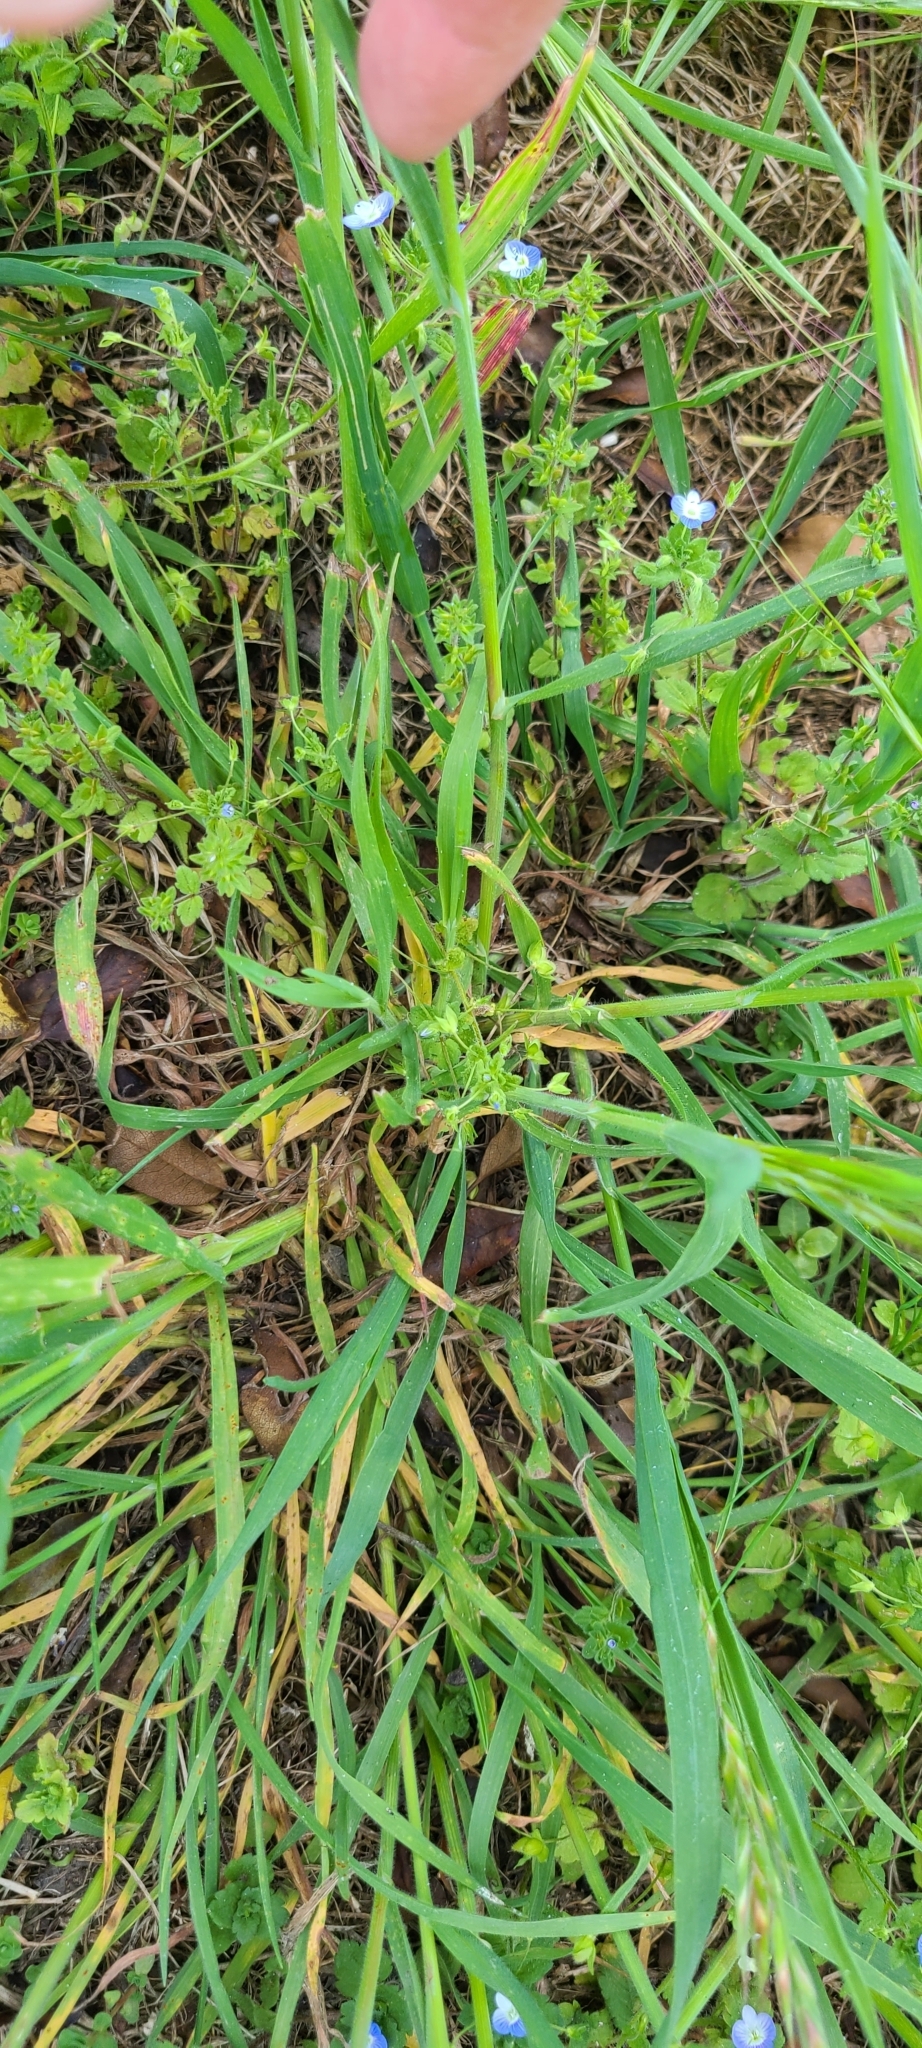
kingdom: Plantae
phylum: Tracheophyta
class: Liliopsida
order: Poales
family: Poaceae
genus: Bromus
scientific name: Bromus diandrus
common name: Ripgut brome
